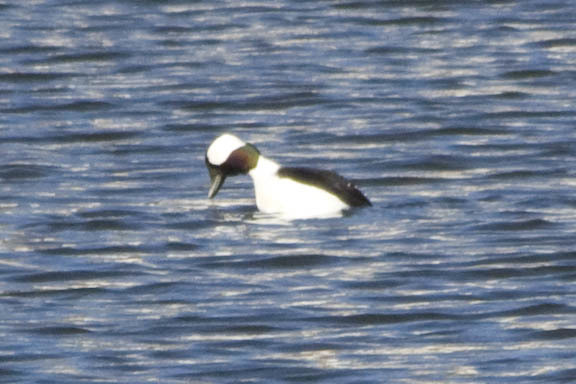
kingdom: Animalia
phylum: Chordata
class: Aves
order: Anseriformes
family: Anatidae
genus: Bucephala
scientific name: Bucephala albeola
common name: Bufflehead
